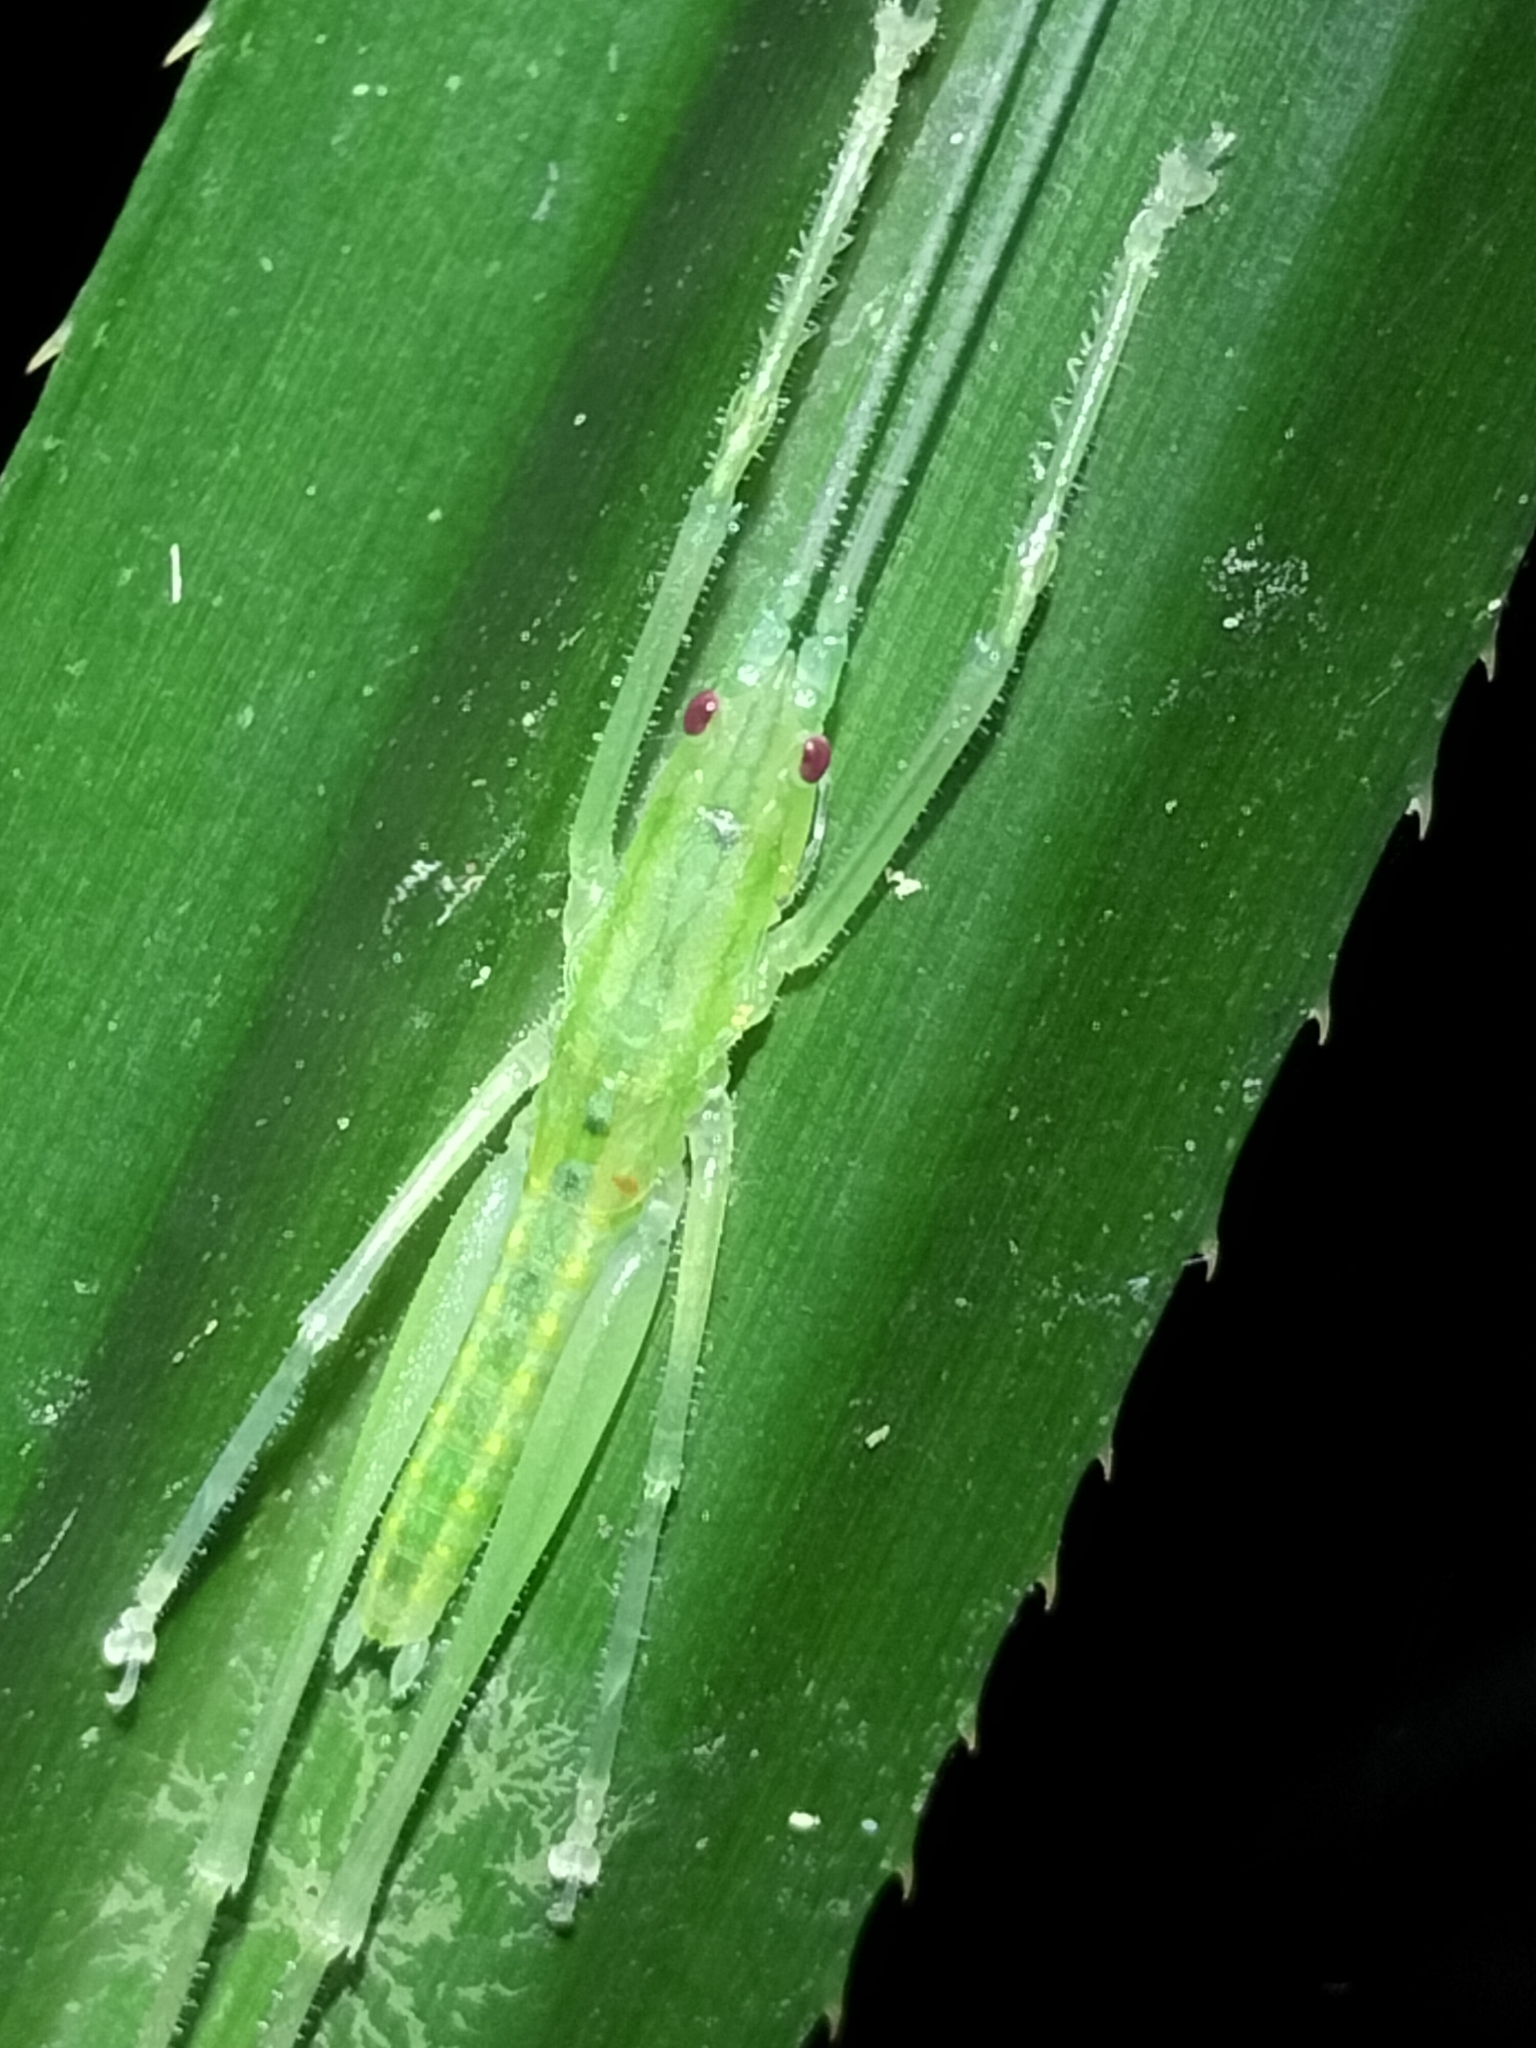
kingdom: Animalia
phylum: Arthropoda
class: Insecta
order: Orthoptera
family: Tettigoniidae
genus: Greenagraecia
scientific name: Greenagraecia attenuata
